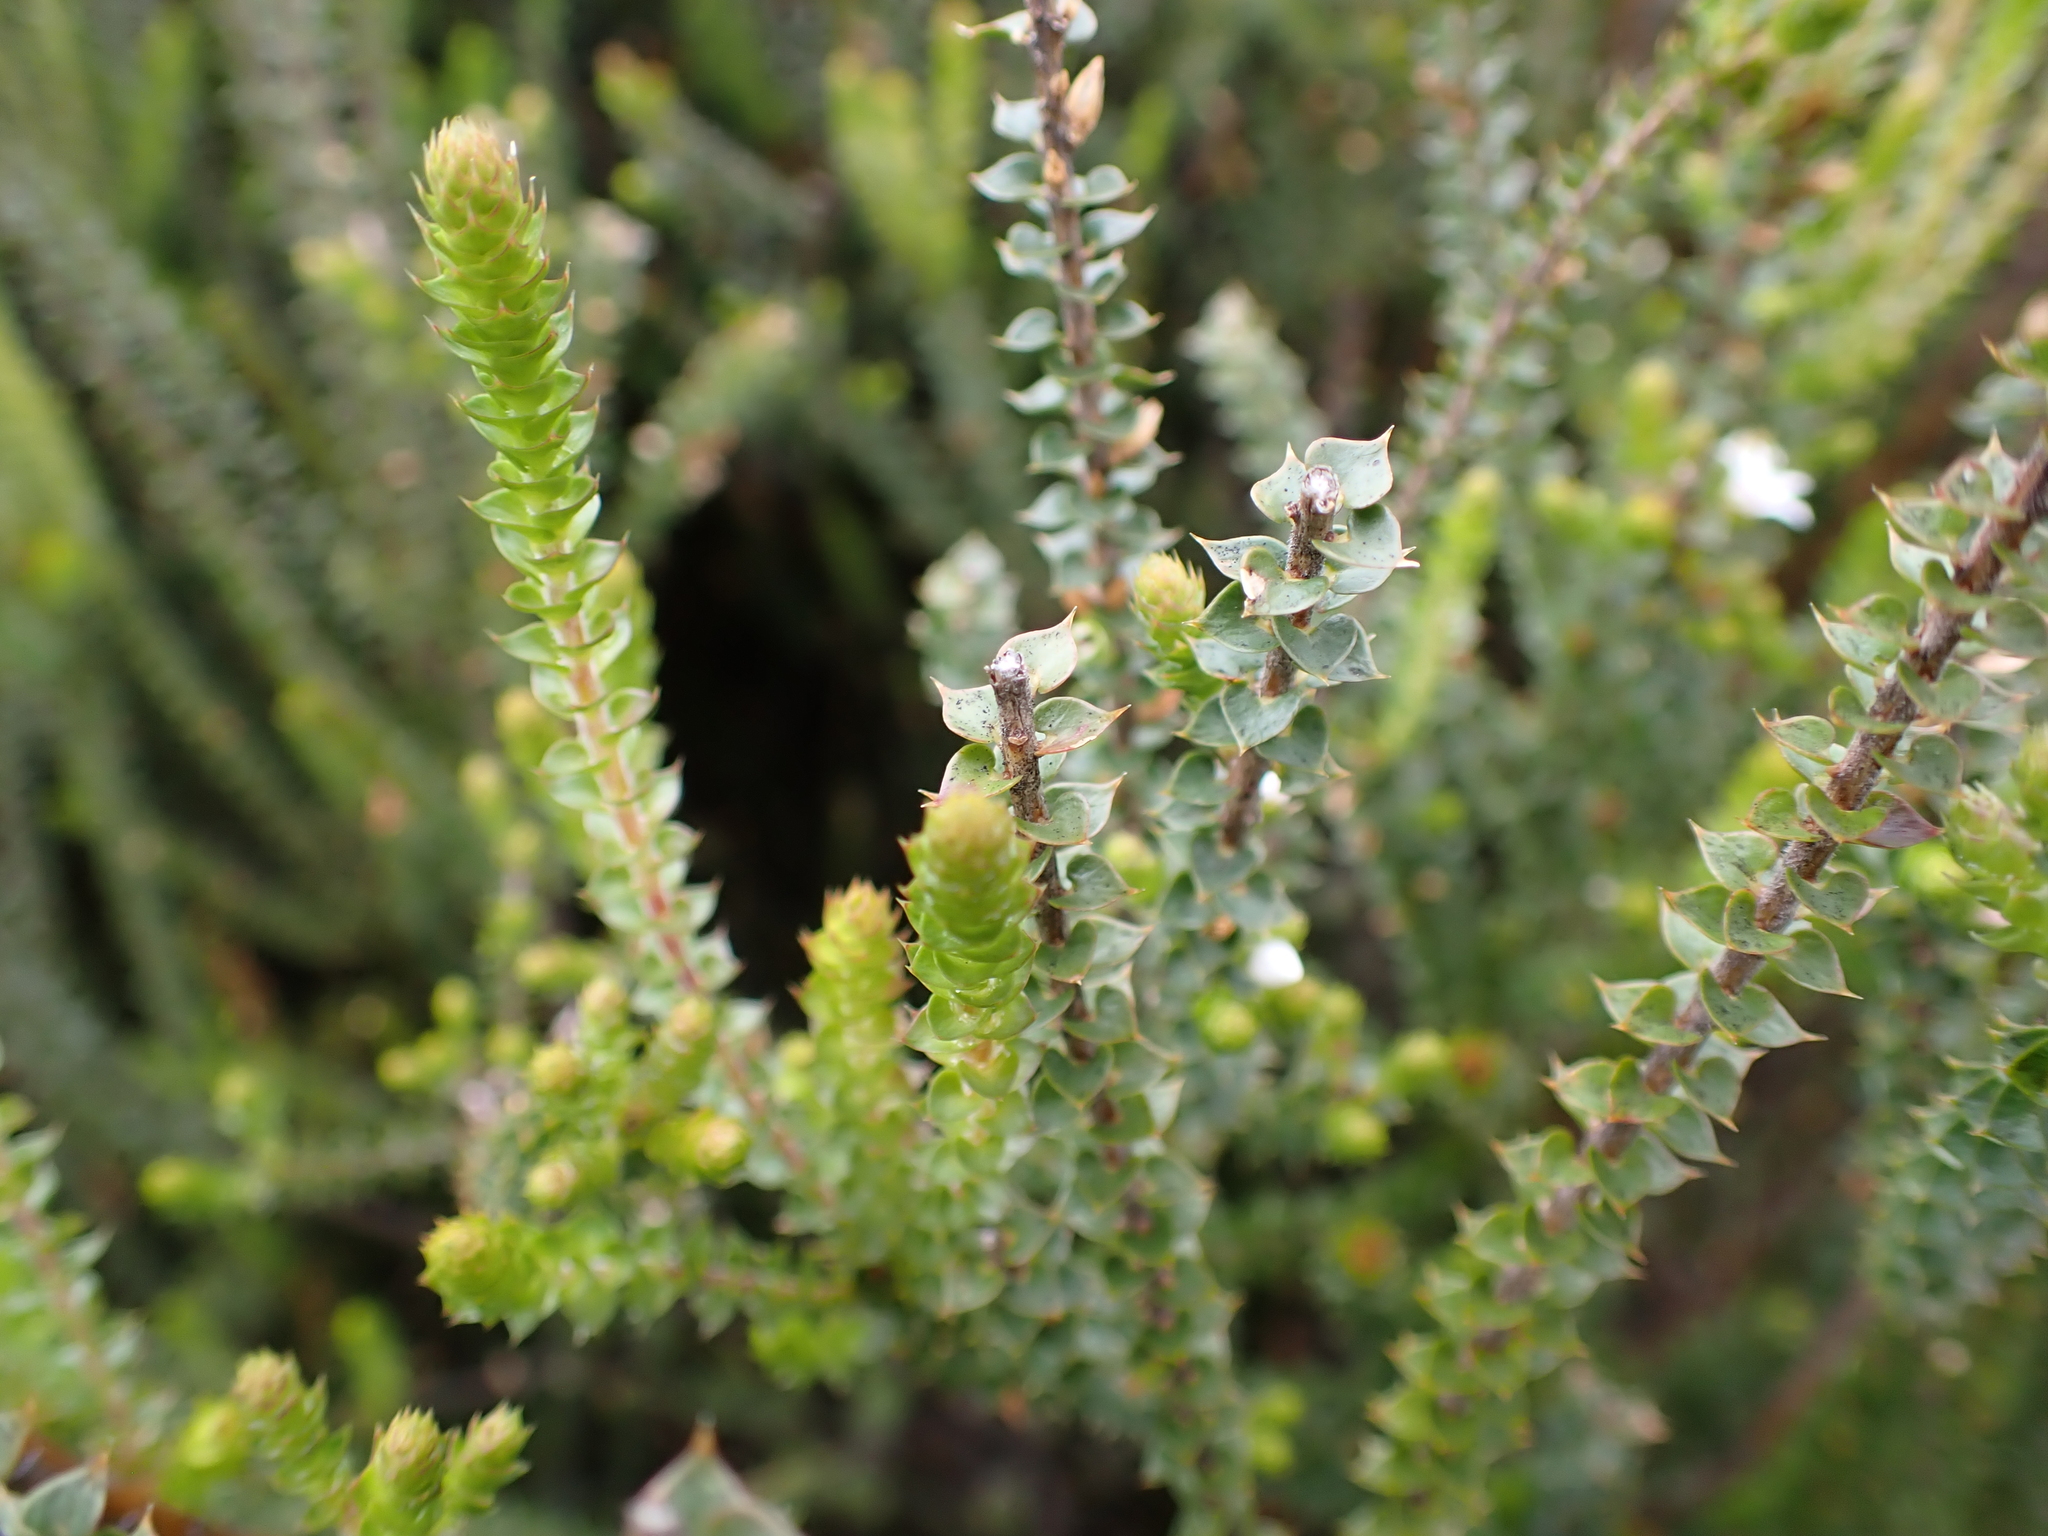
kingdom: Plantae
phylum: Tracheophyta
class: Magnoliopsida
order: Ericales
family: Ericaceae
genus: Epacris
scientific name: Epacris gunnii
